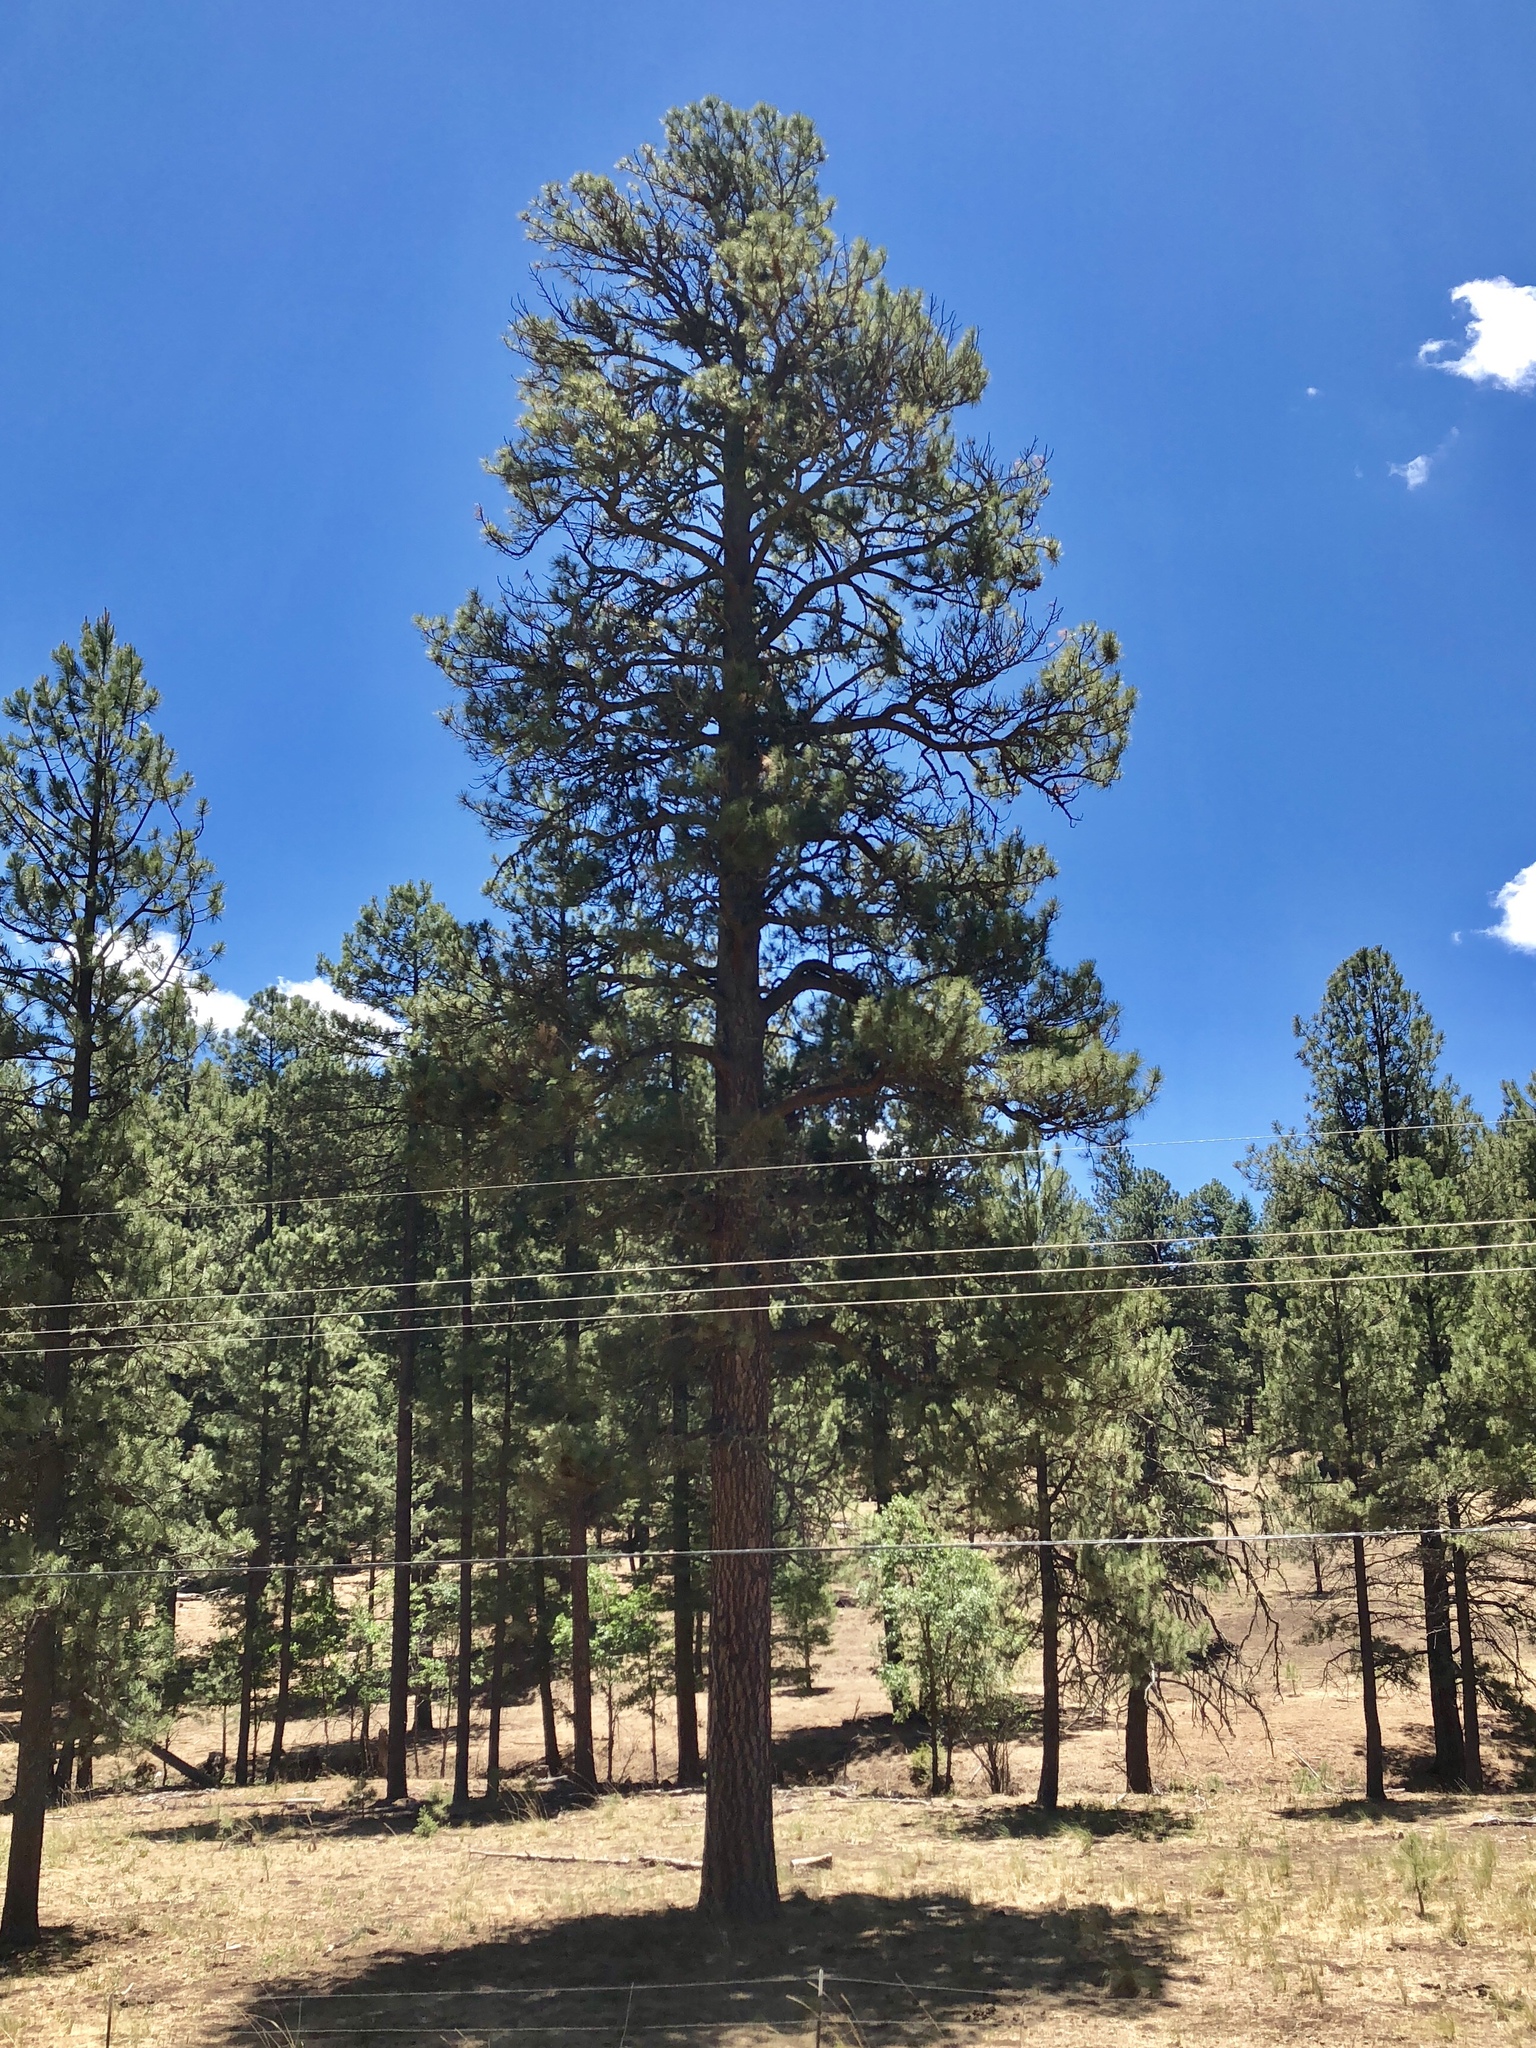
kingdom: Plantae
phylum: Tracheophyta
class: Pinopsida
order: Pinales
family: Pinaceae
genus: Pinus
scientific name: Pinus ponderosa
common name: Western yellow-pine
